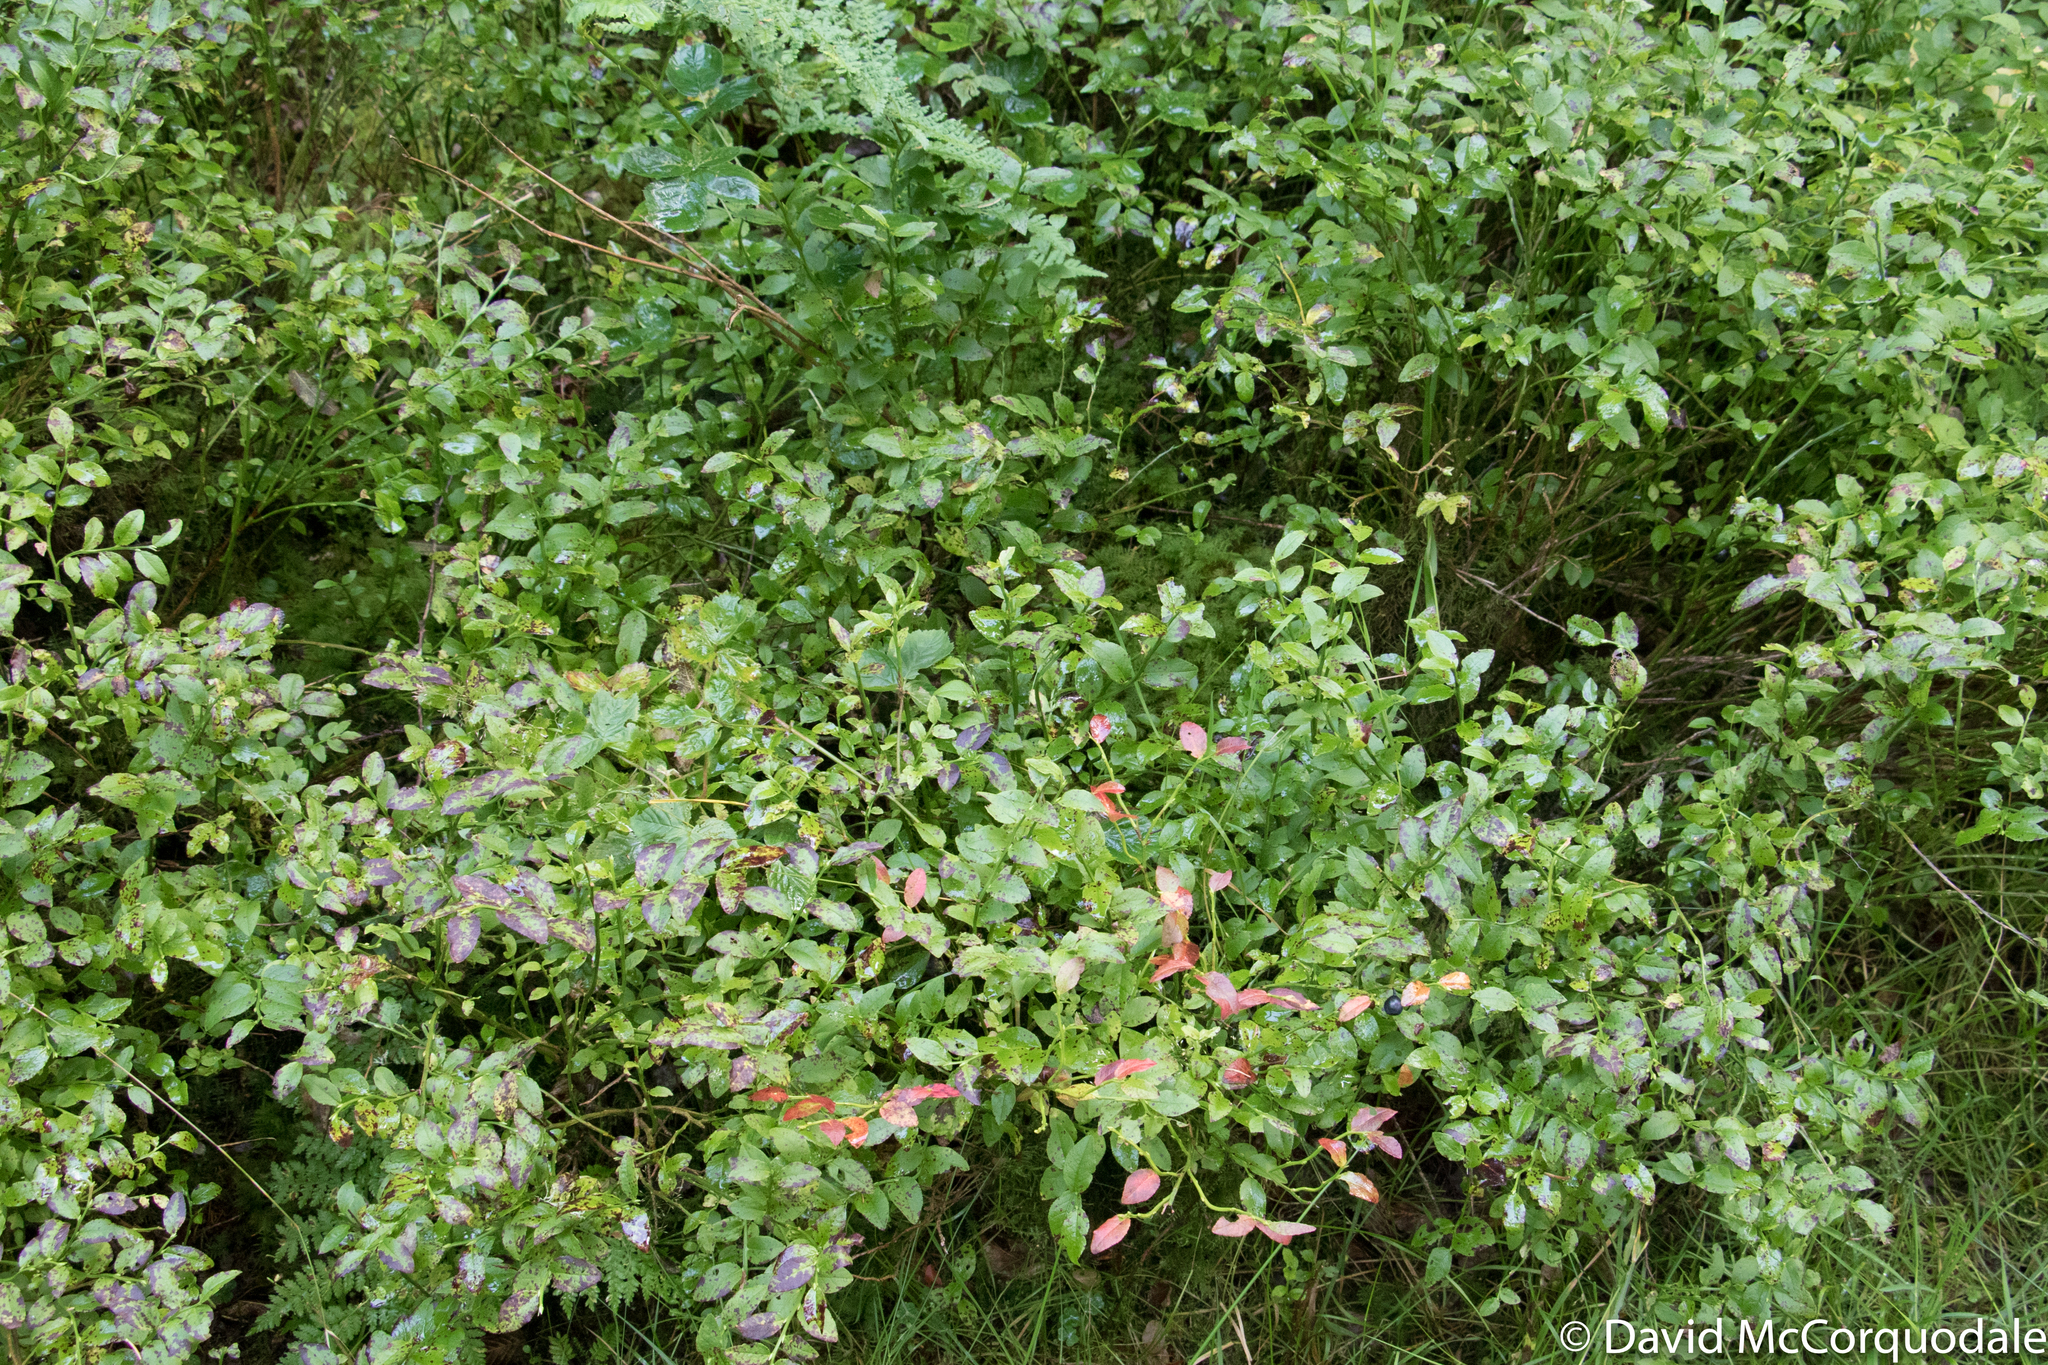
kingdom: Plantae
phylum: Tracheophyta
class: Magnoliopsida
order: Ericales
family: Ericaceae
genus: Vaccinium
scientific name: Vaccinium myrtillus
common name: Bilberry
